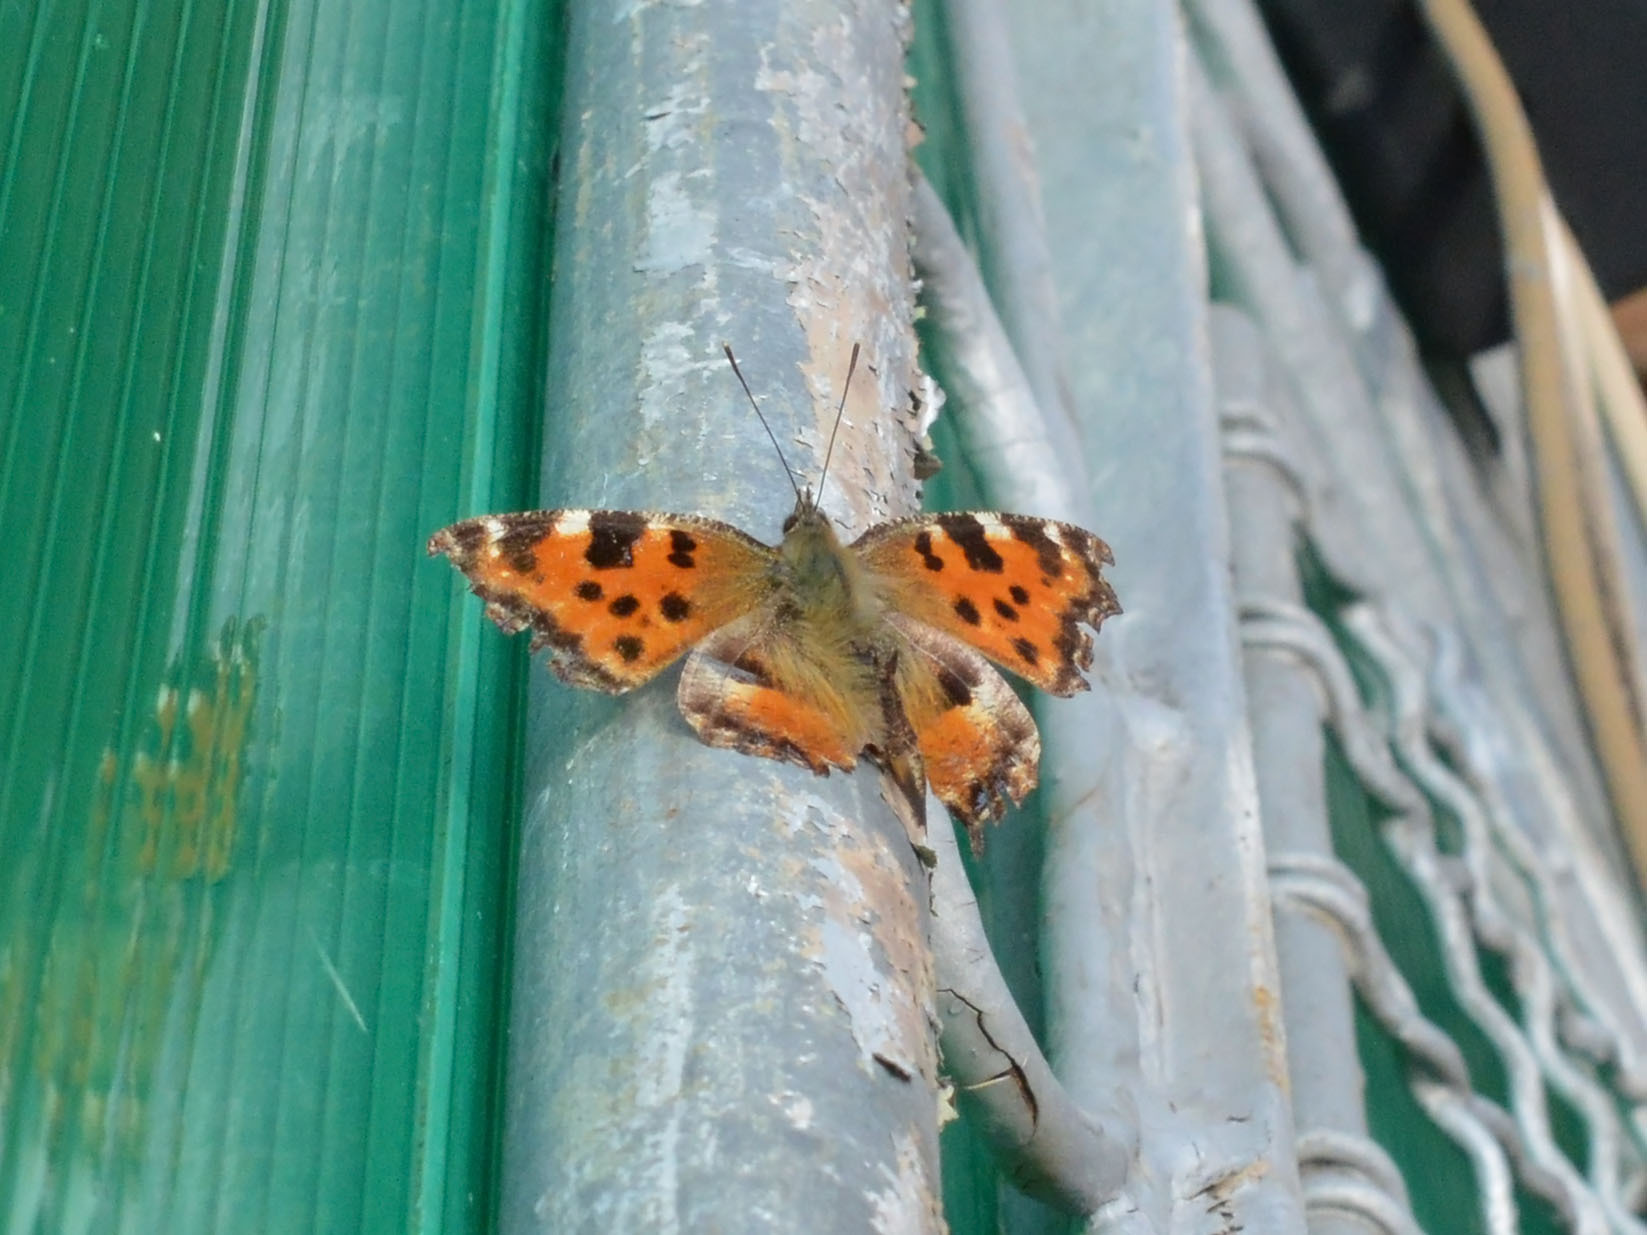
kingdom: Animalia
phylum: Arthropoda
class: Insecta
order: Lepidoptera
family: Nymphalidae
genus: Nymphalis
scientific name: Nymphalis polychloros
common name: Large tortoiseshell
